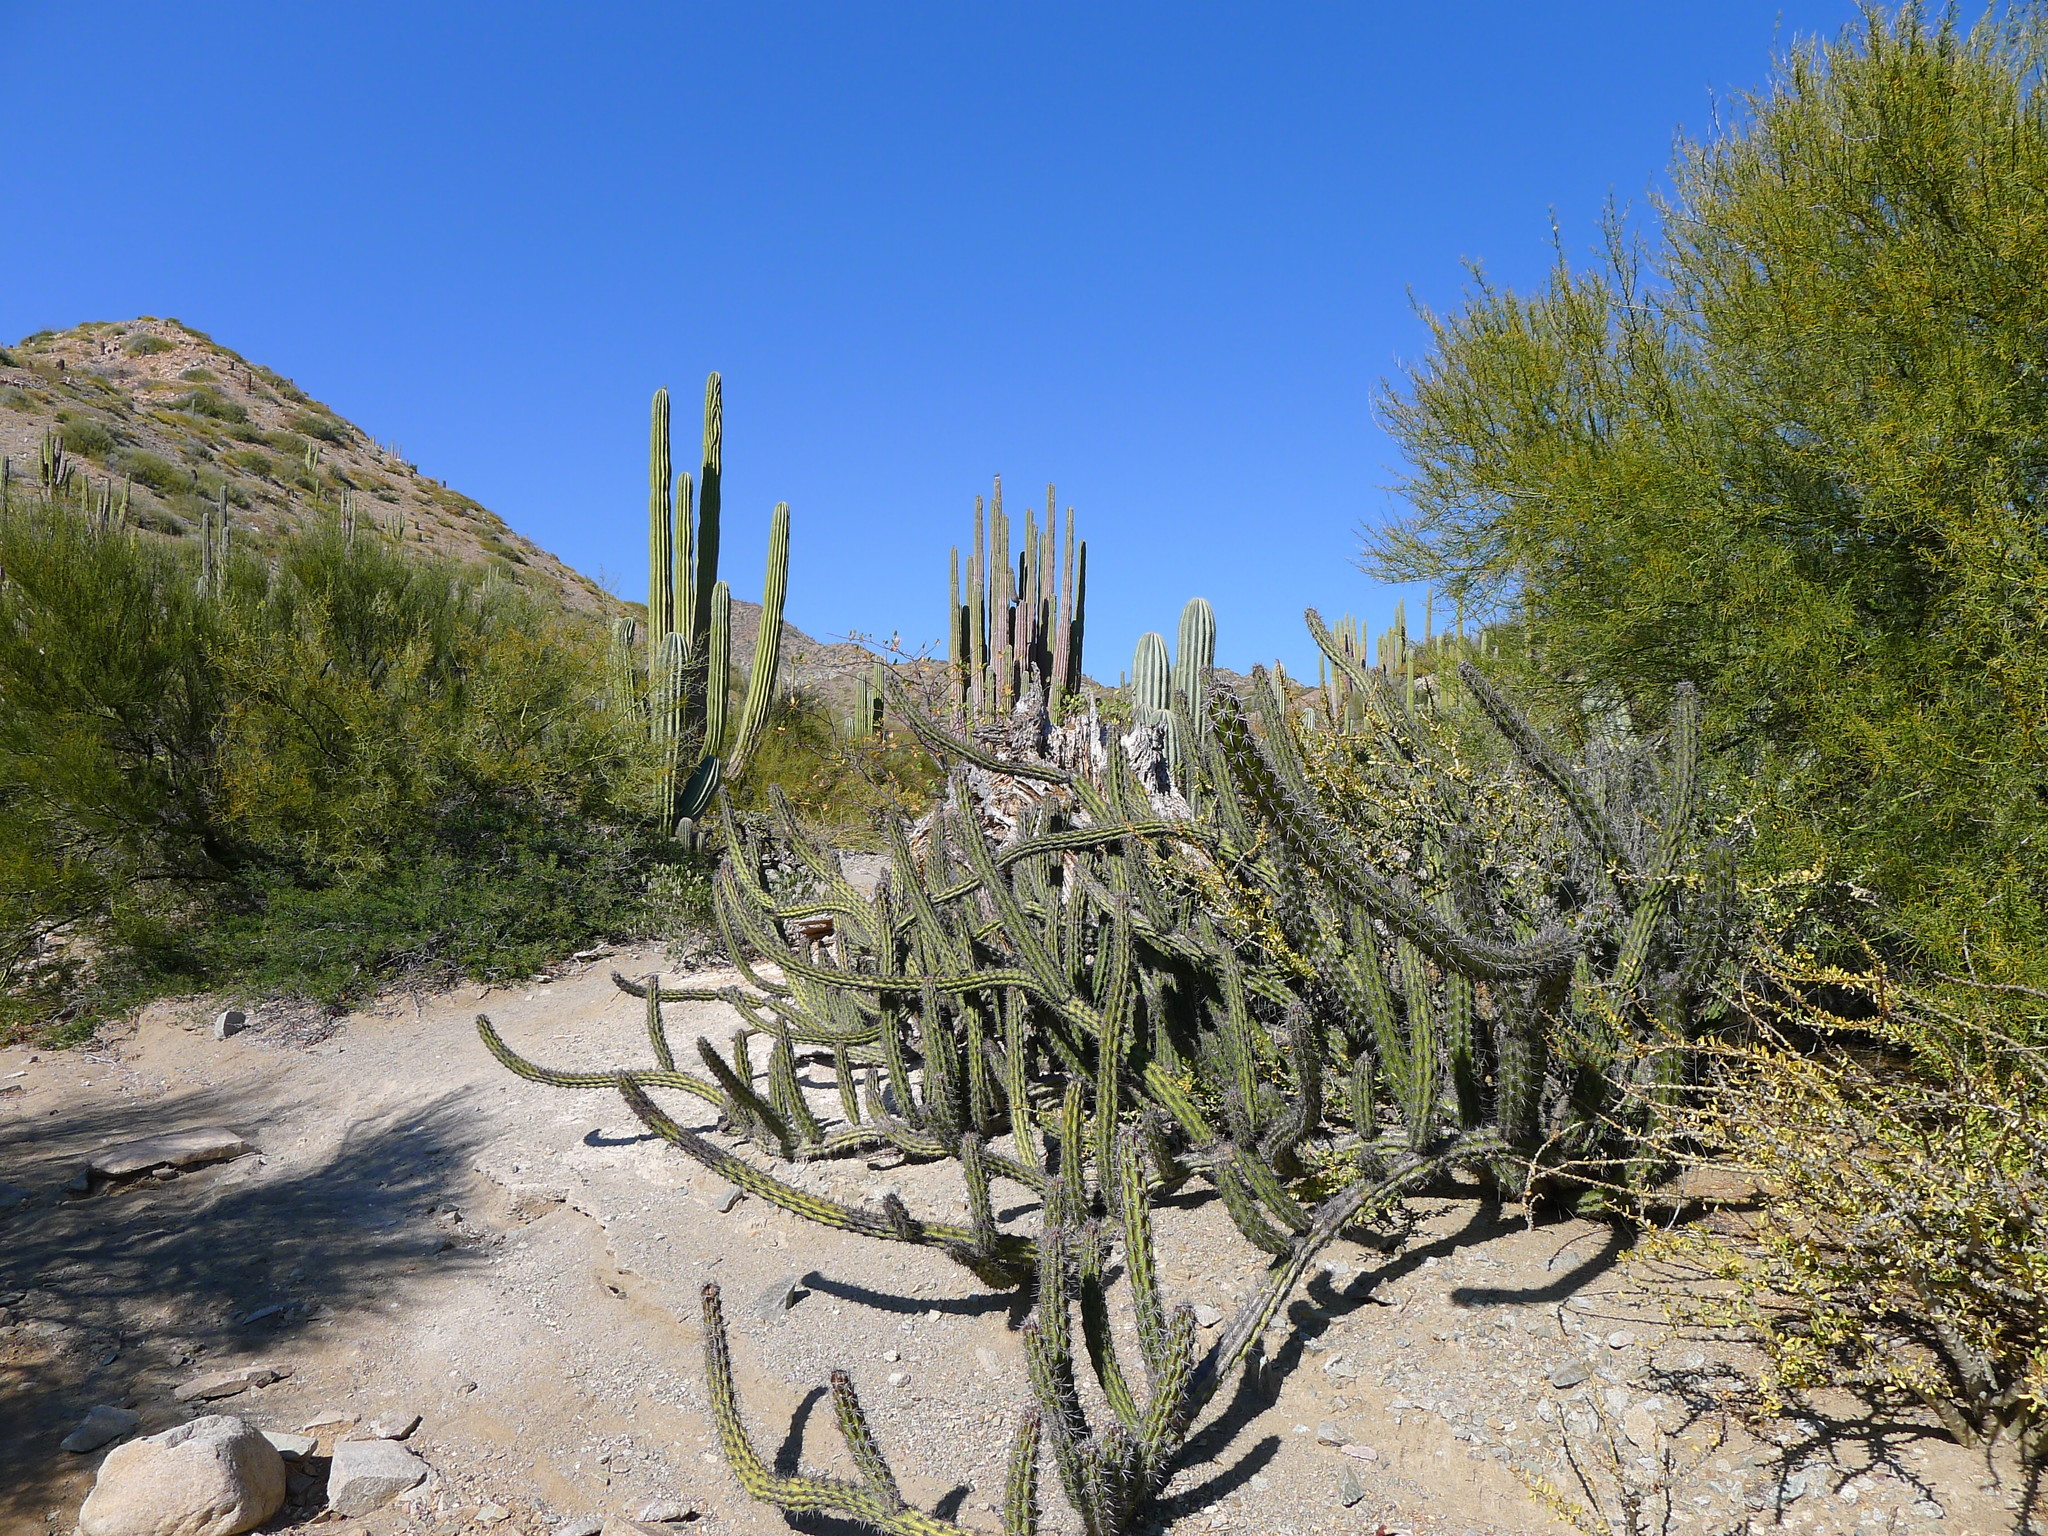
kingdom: Plantae
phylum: Tracheophyta
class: Magnoliopsida
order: Caryophyllales
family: Cactaceae
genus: Stenocereus
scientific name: Stenocereus gummosus
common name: Dagger cactus
